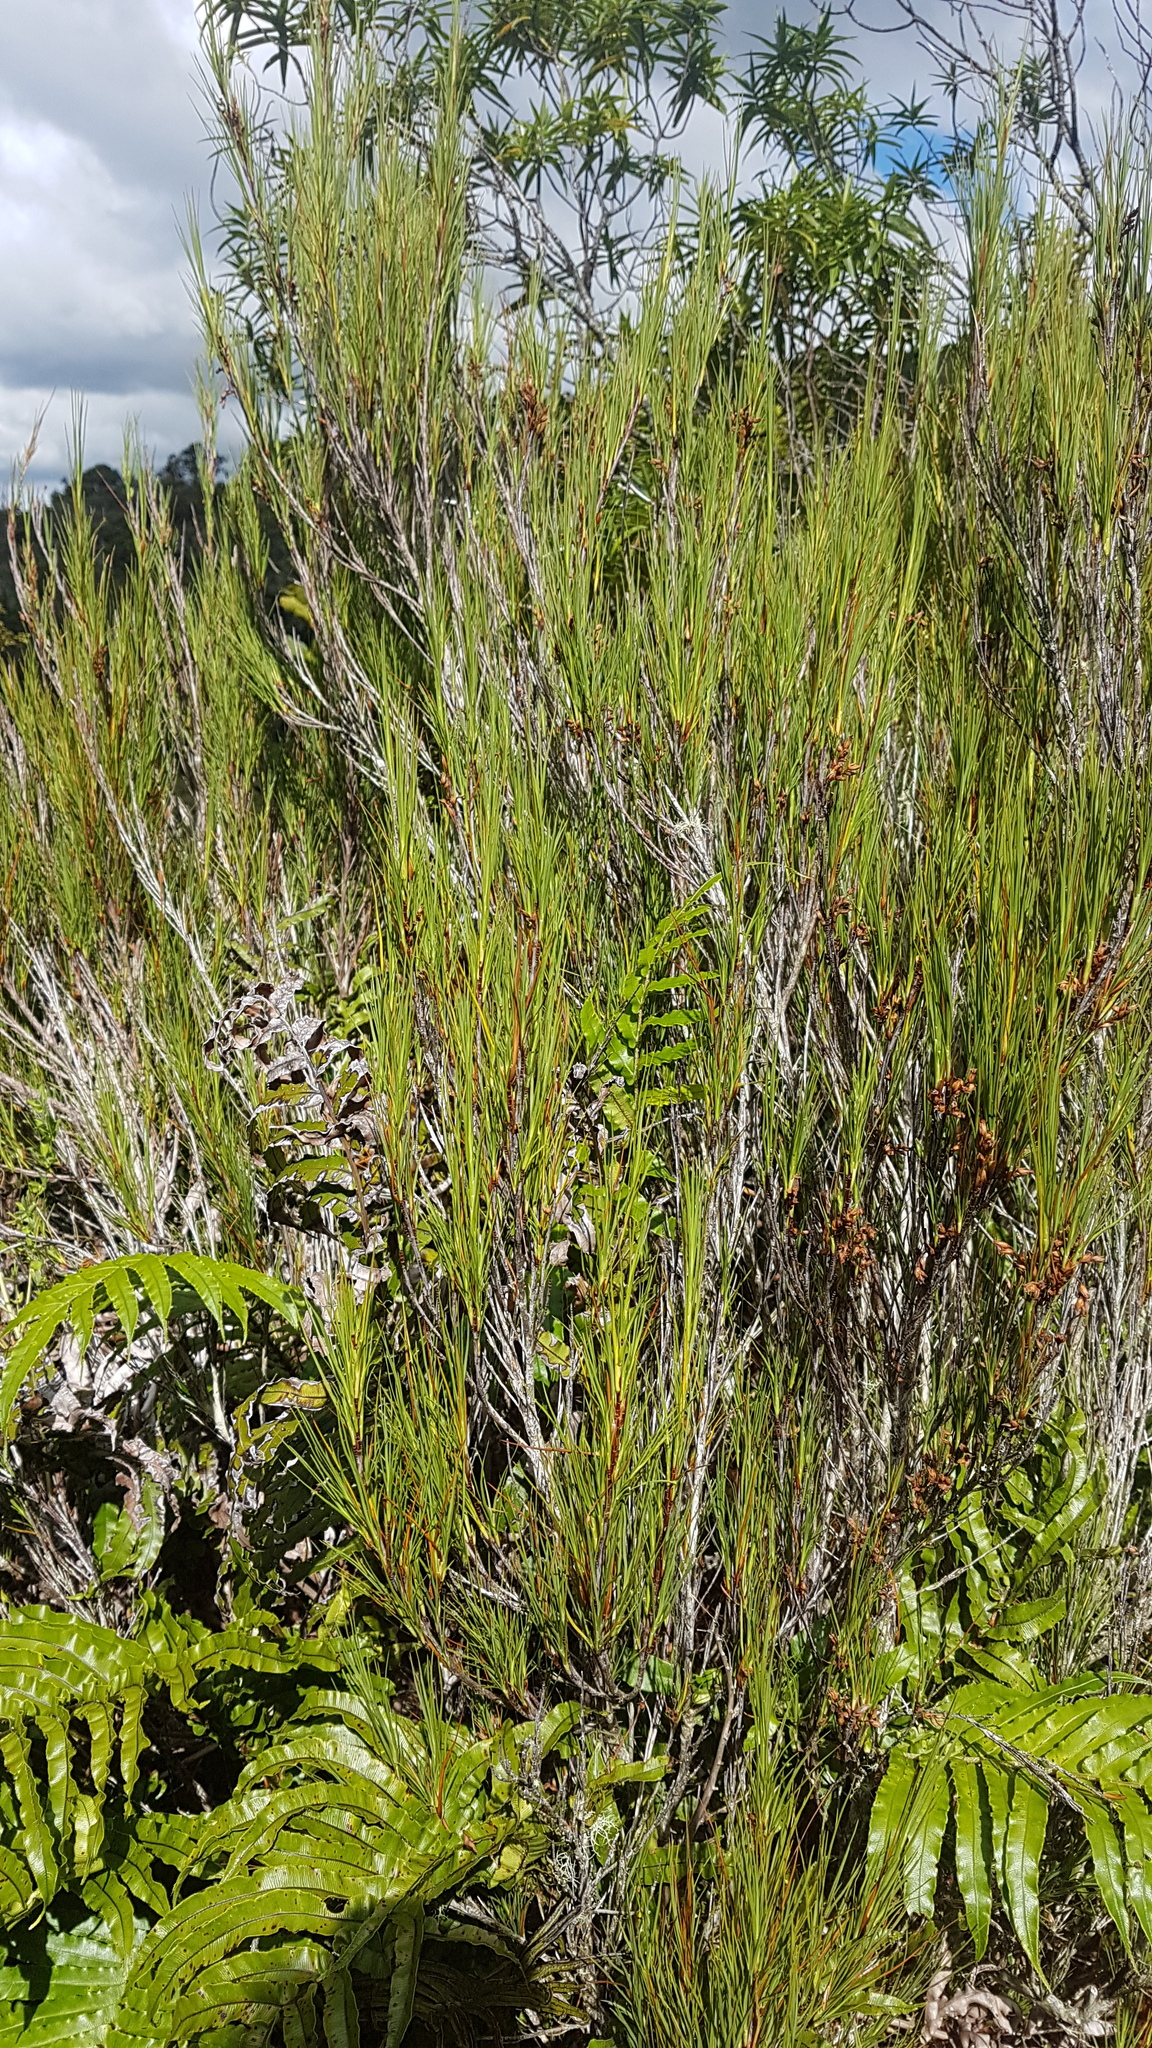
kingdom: Plantae
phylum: Tracheophyta
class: Magnoliopsida
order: Ericales
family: Ericaceae
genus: Dracophyllum
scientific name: Dracophyllum filifolium
